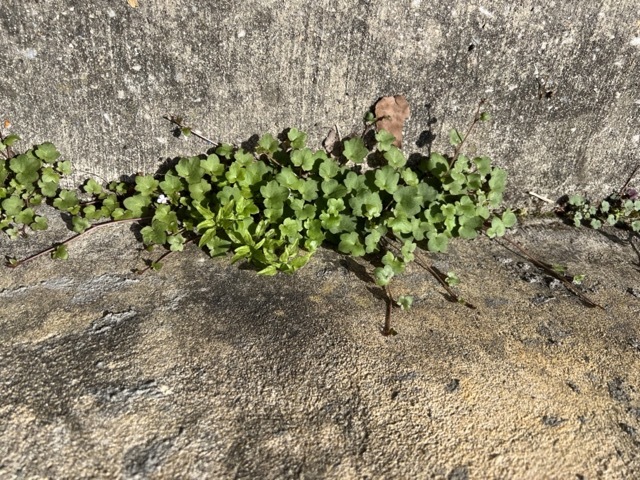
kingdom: Plantae
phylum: Tracheophyta
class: Magnoliopsida
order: Lamiales
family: Plantaginaceae
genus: Cymbalaria
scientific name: Cymbalaria muralis
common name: Ivy-leaved toadflax
